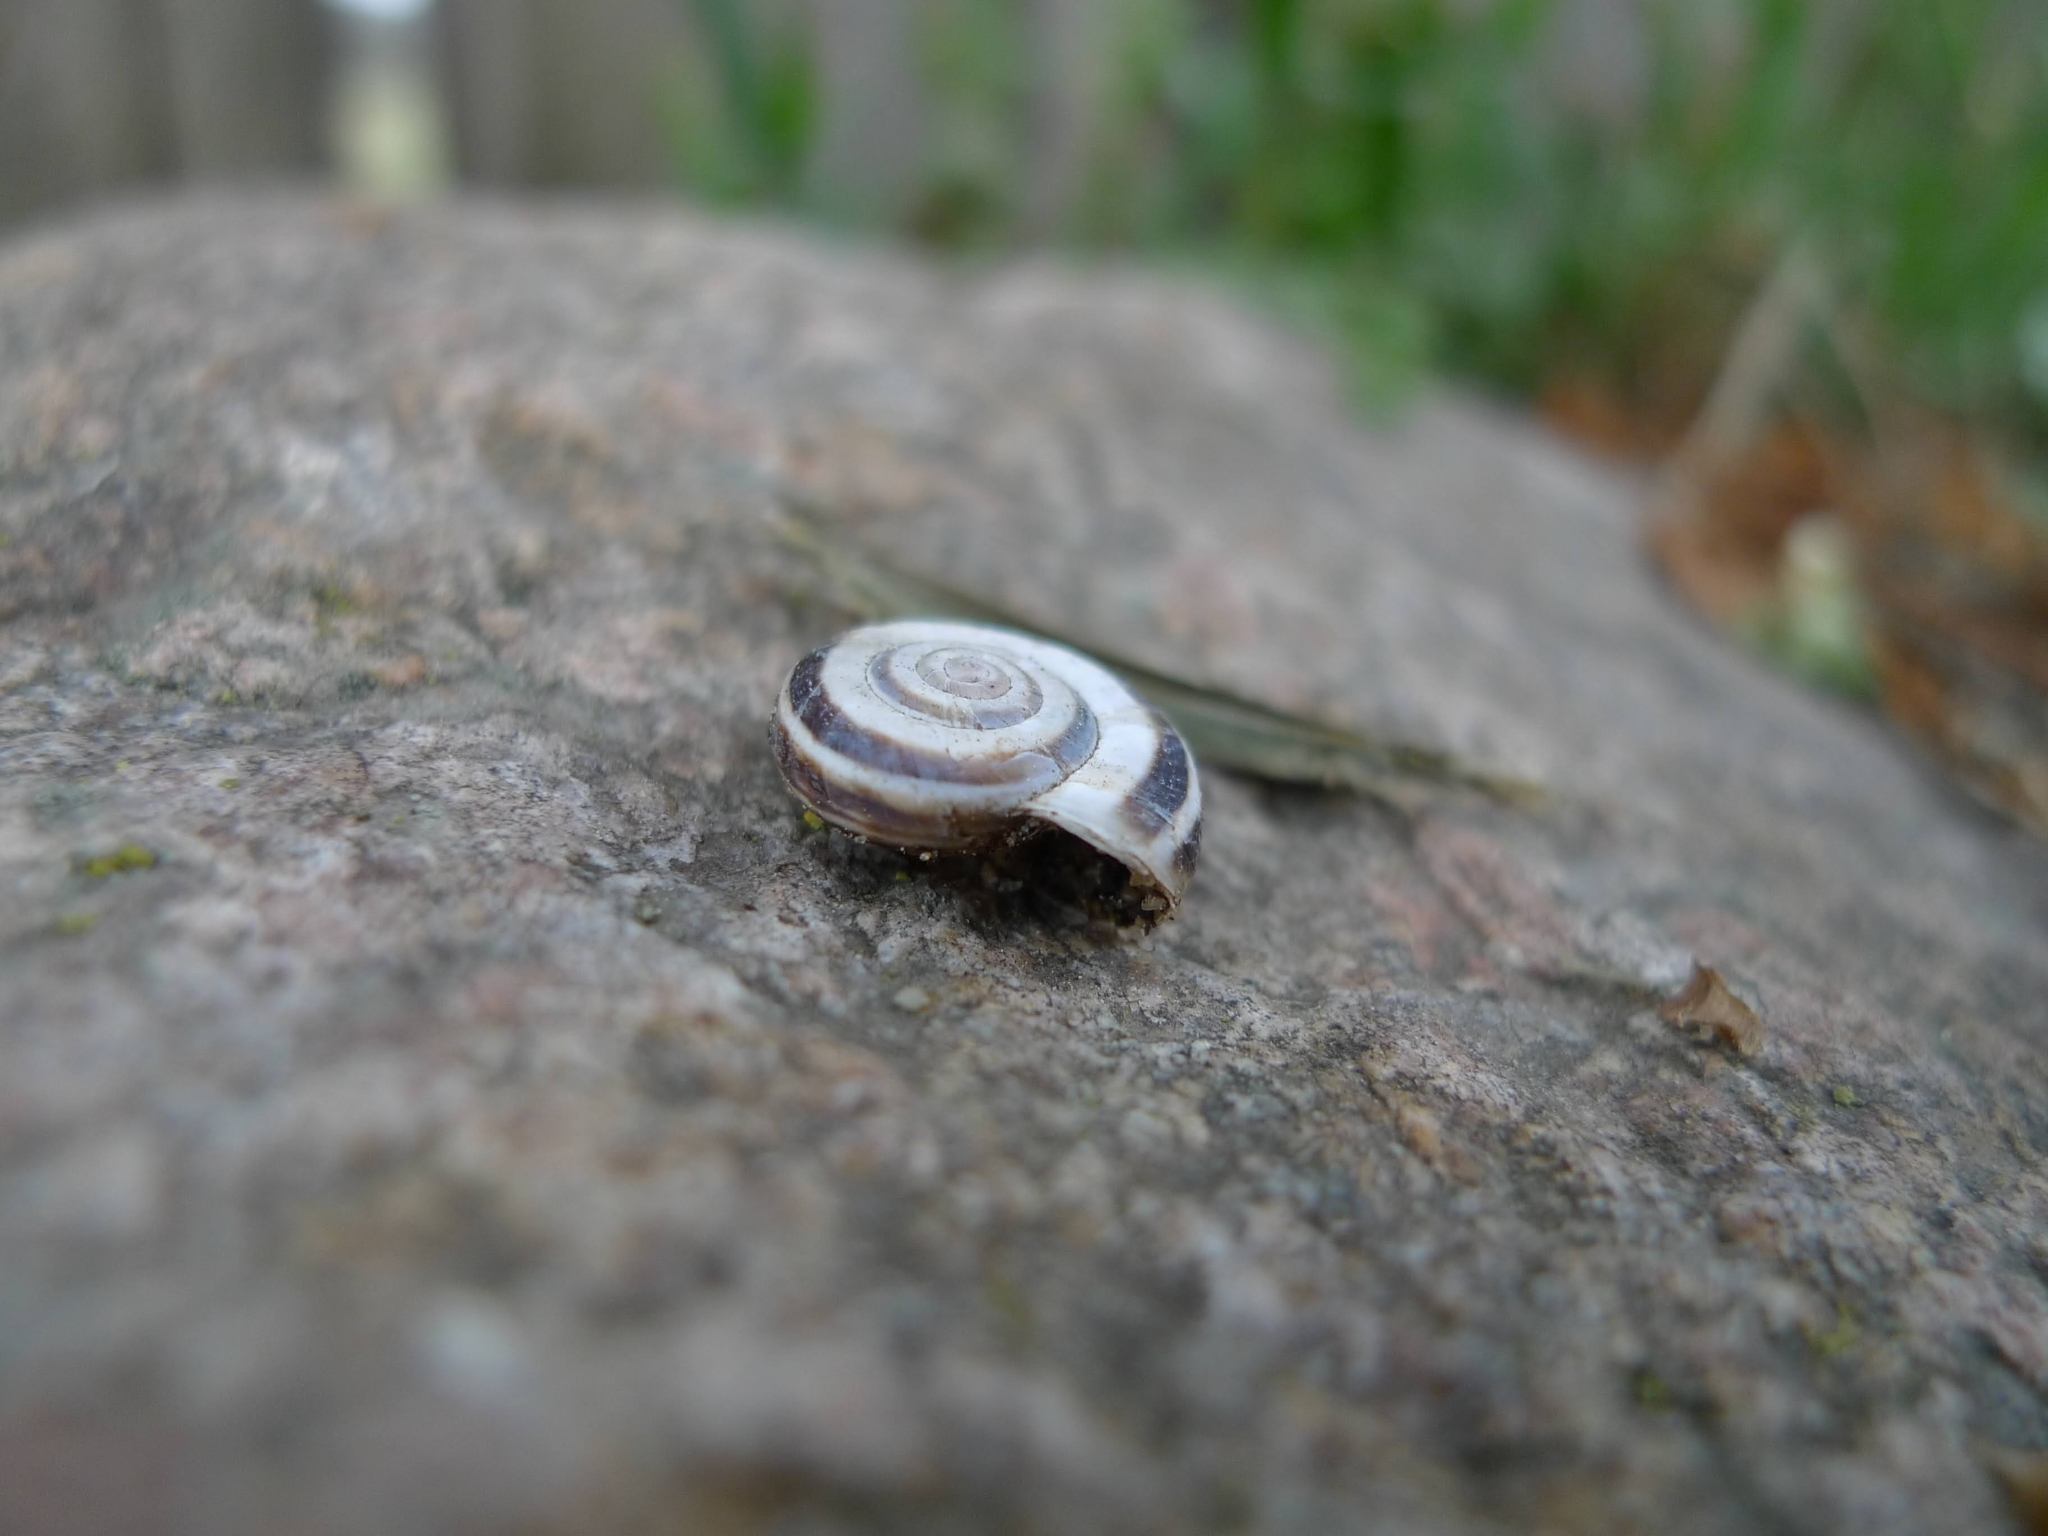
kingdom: Animalia
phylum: Mollusca
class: Gastropoda
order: Stylommatophora
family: Geomitridae
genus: Xerolenta
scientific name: Xerolenta obvia
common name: White heath snail
